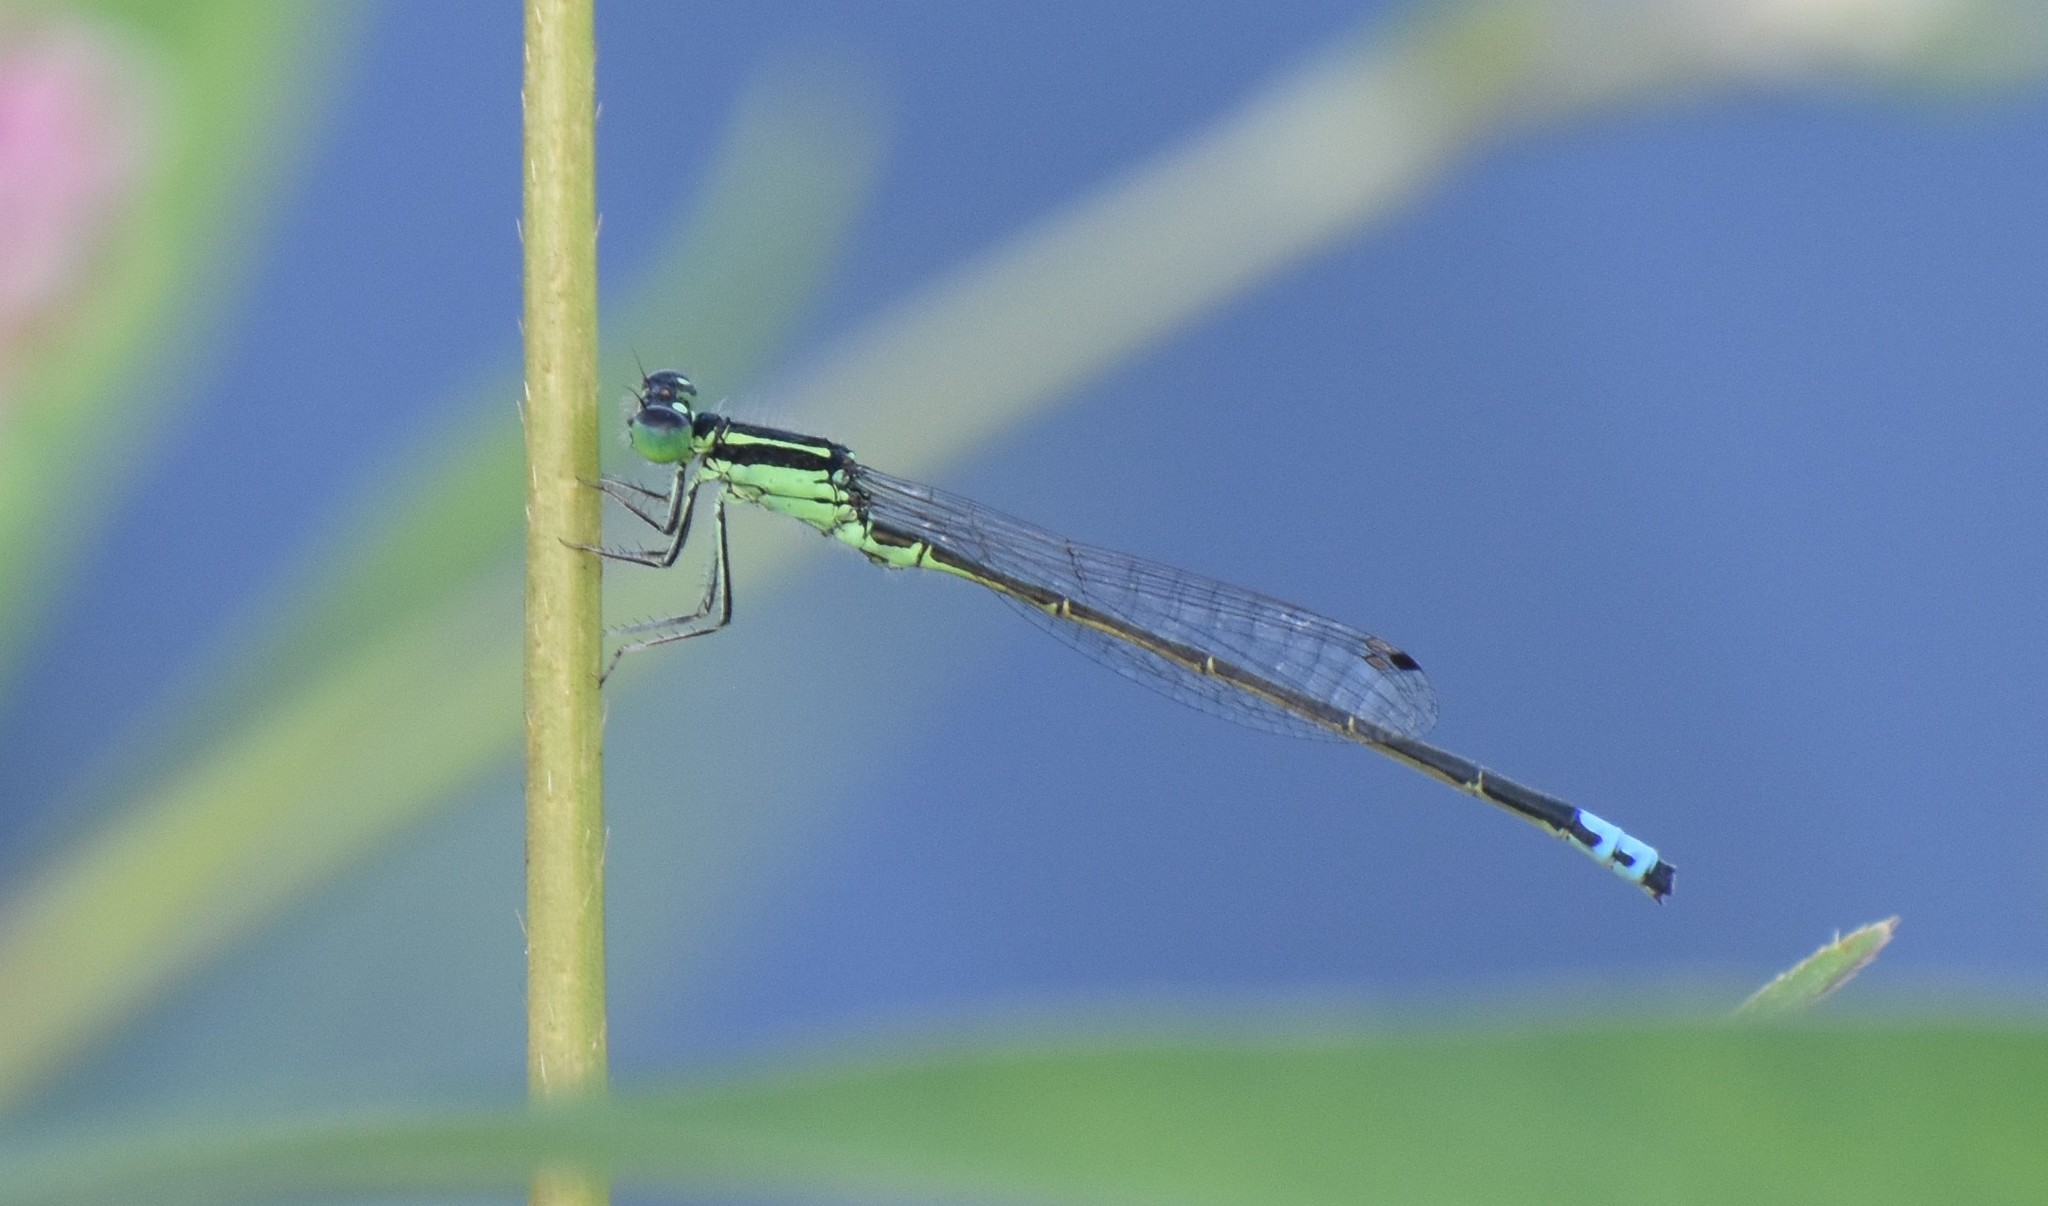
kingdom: Animalia
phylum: Arthropoda
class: Insecta
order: Odonata
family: Coenagrionidae
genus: Ischnura
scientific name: Ischnura verticalis
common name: Eastern forktail
